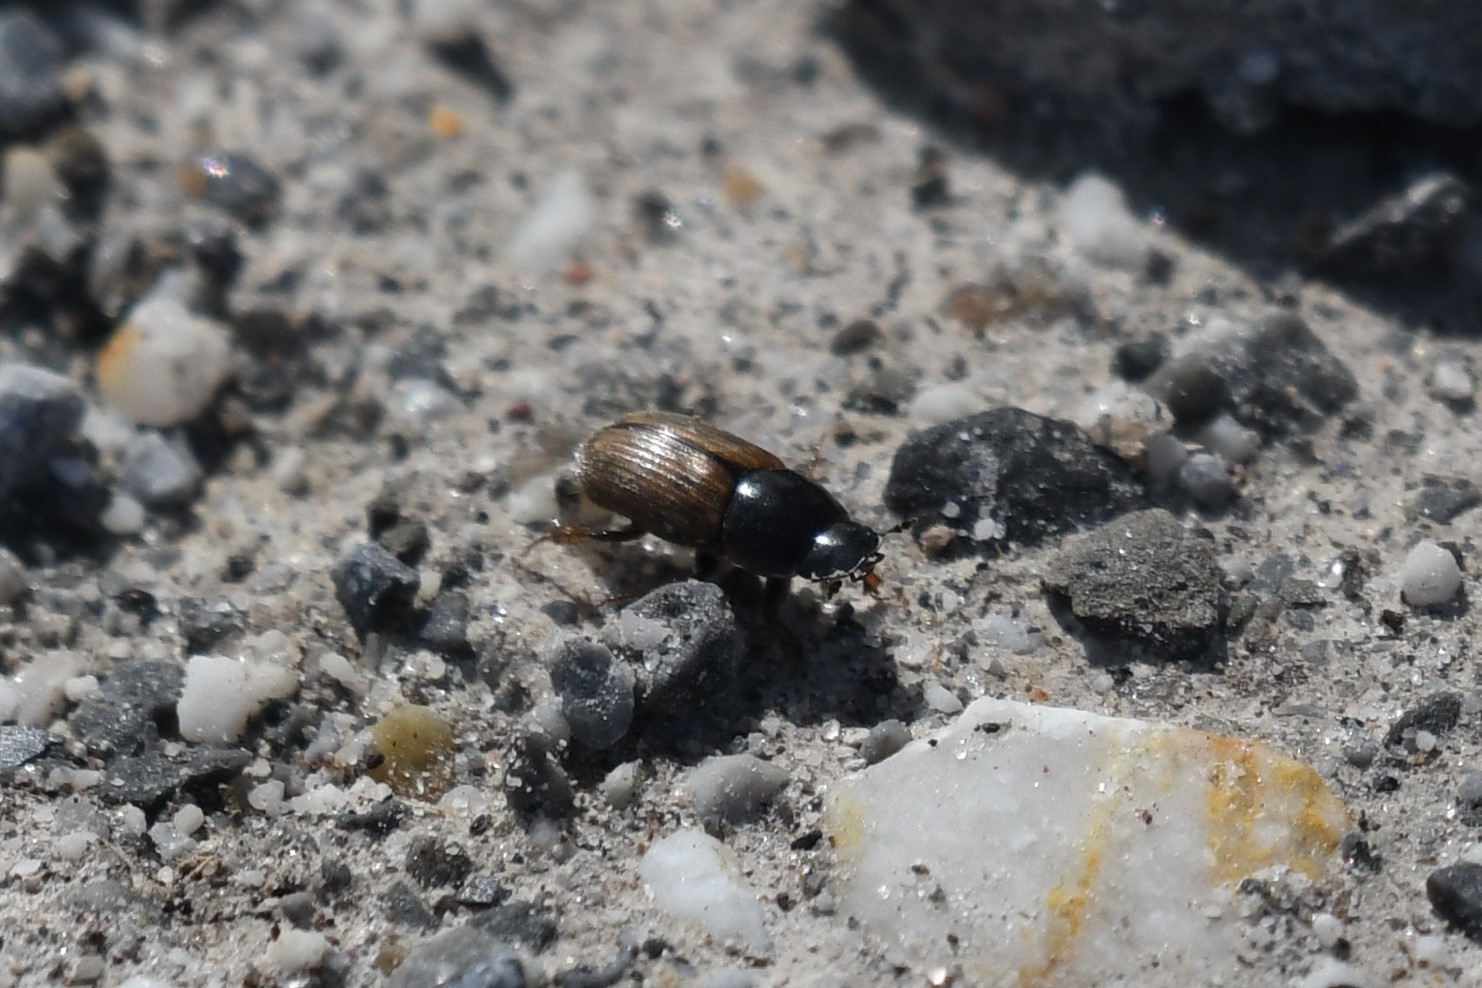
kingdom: Animalia
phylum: Arthropoda
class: Insecta
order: Coleoptera
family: Scarabaeidae
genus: Melinopterus
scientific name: Melinopterus prodromus
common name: Spring small dung beetle
